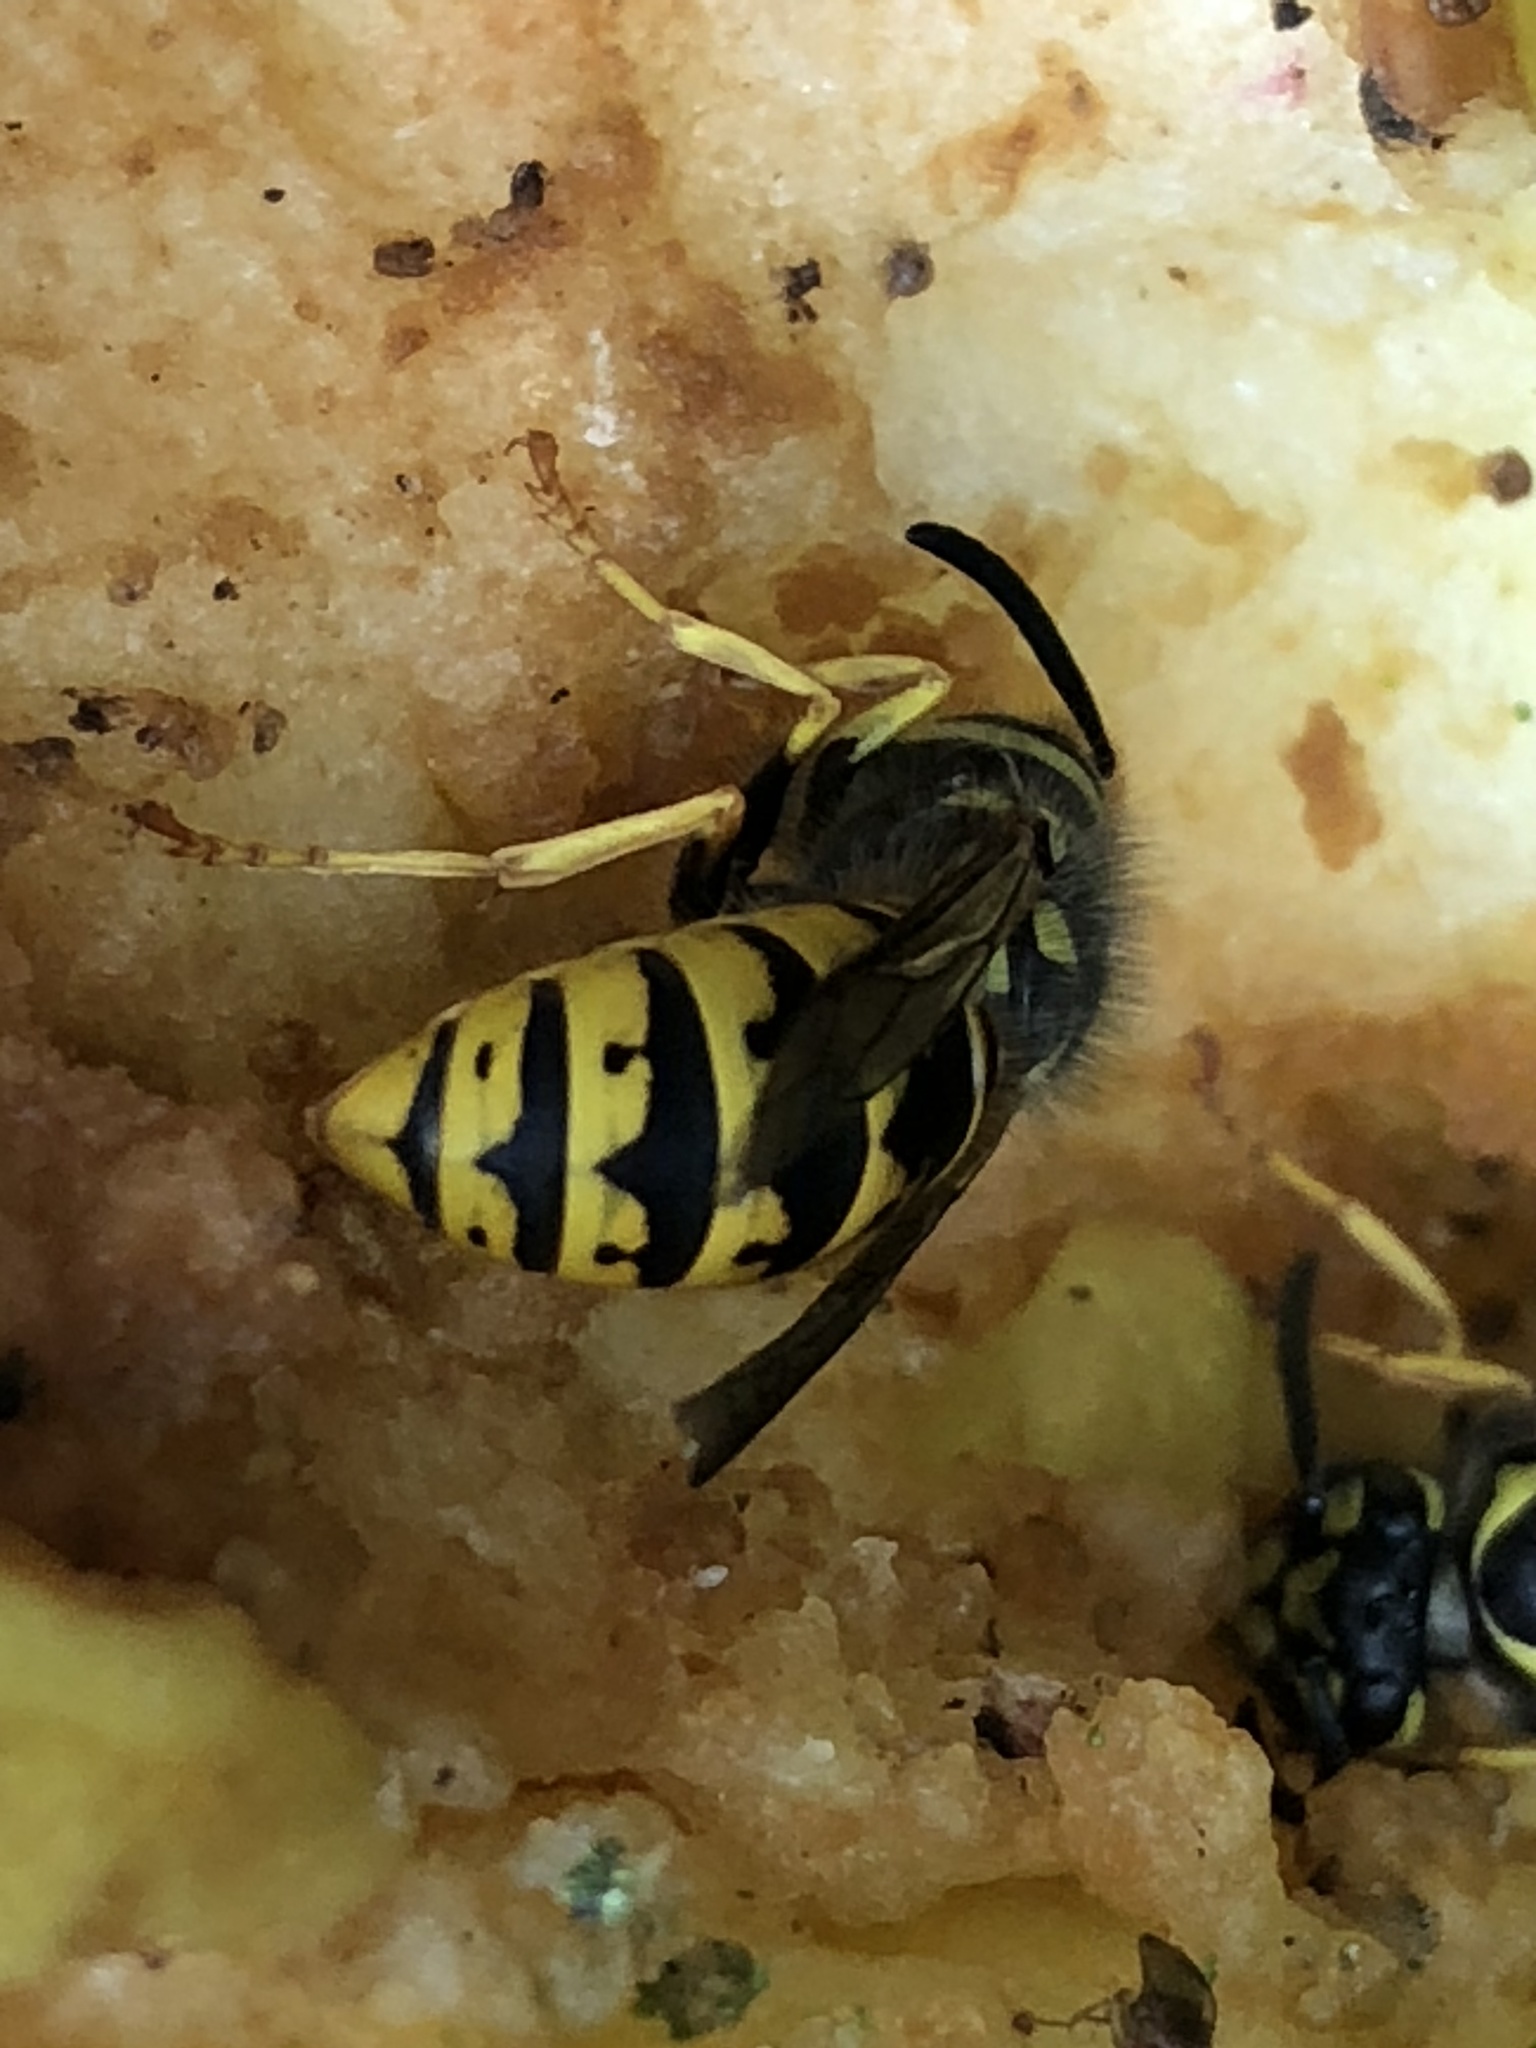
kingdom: Animalia
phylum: Arthropoda
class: Insecta
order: Hymenoptera
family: Vespidae
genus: Vespula
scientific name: Vespula germanica
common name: German wasp
